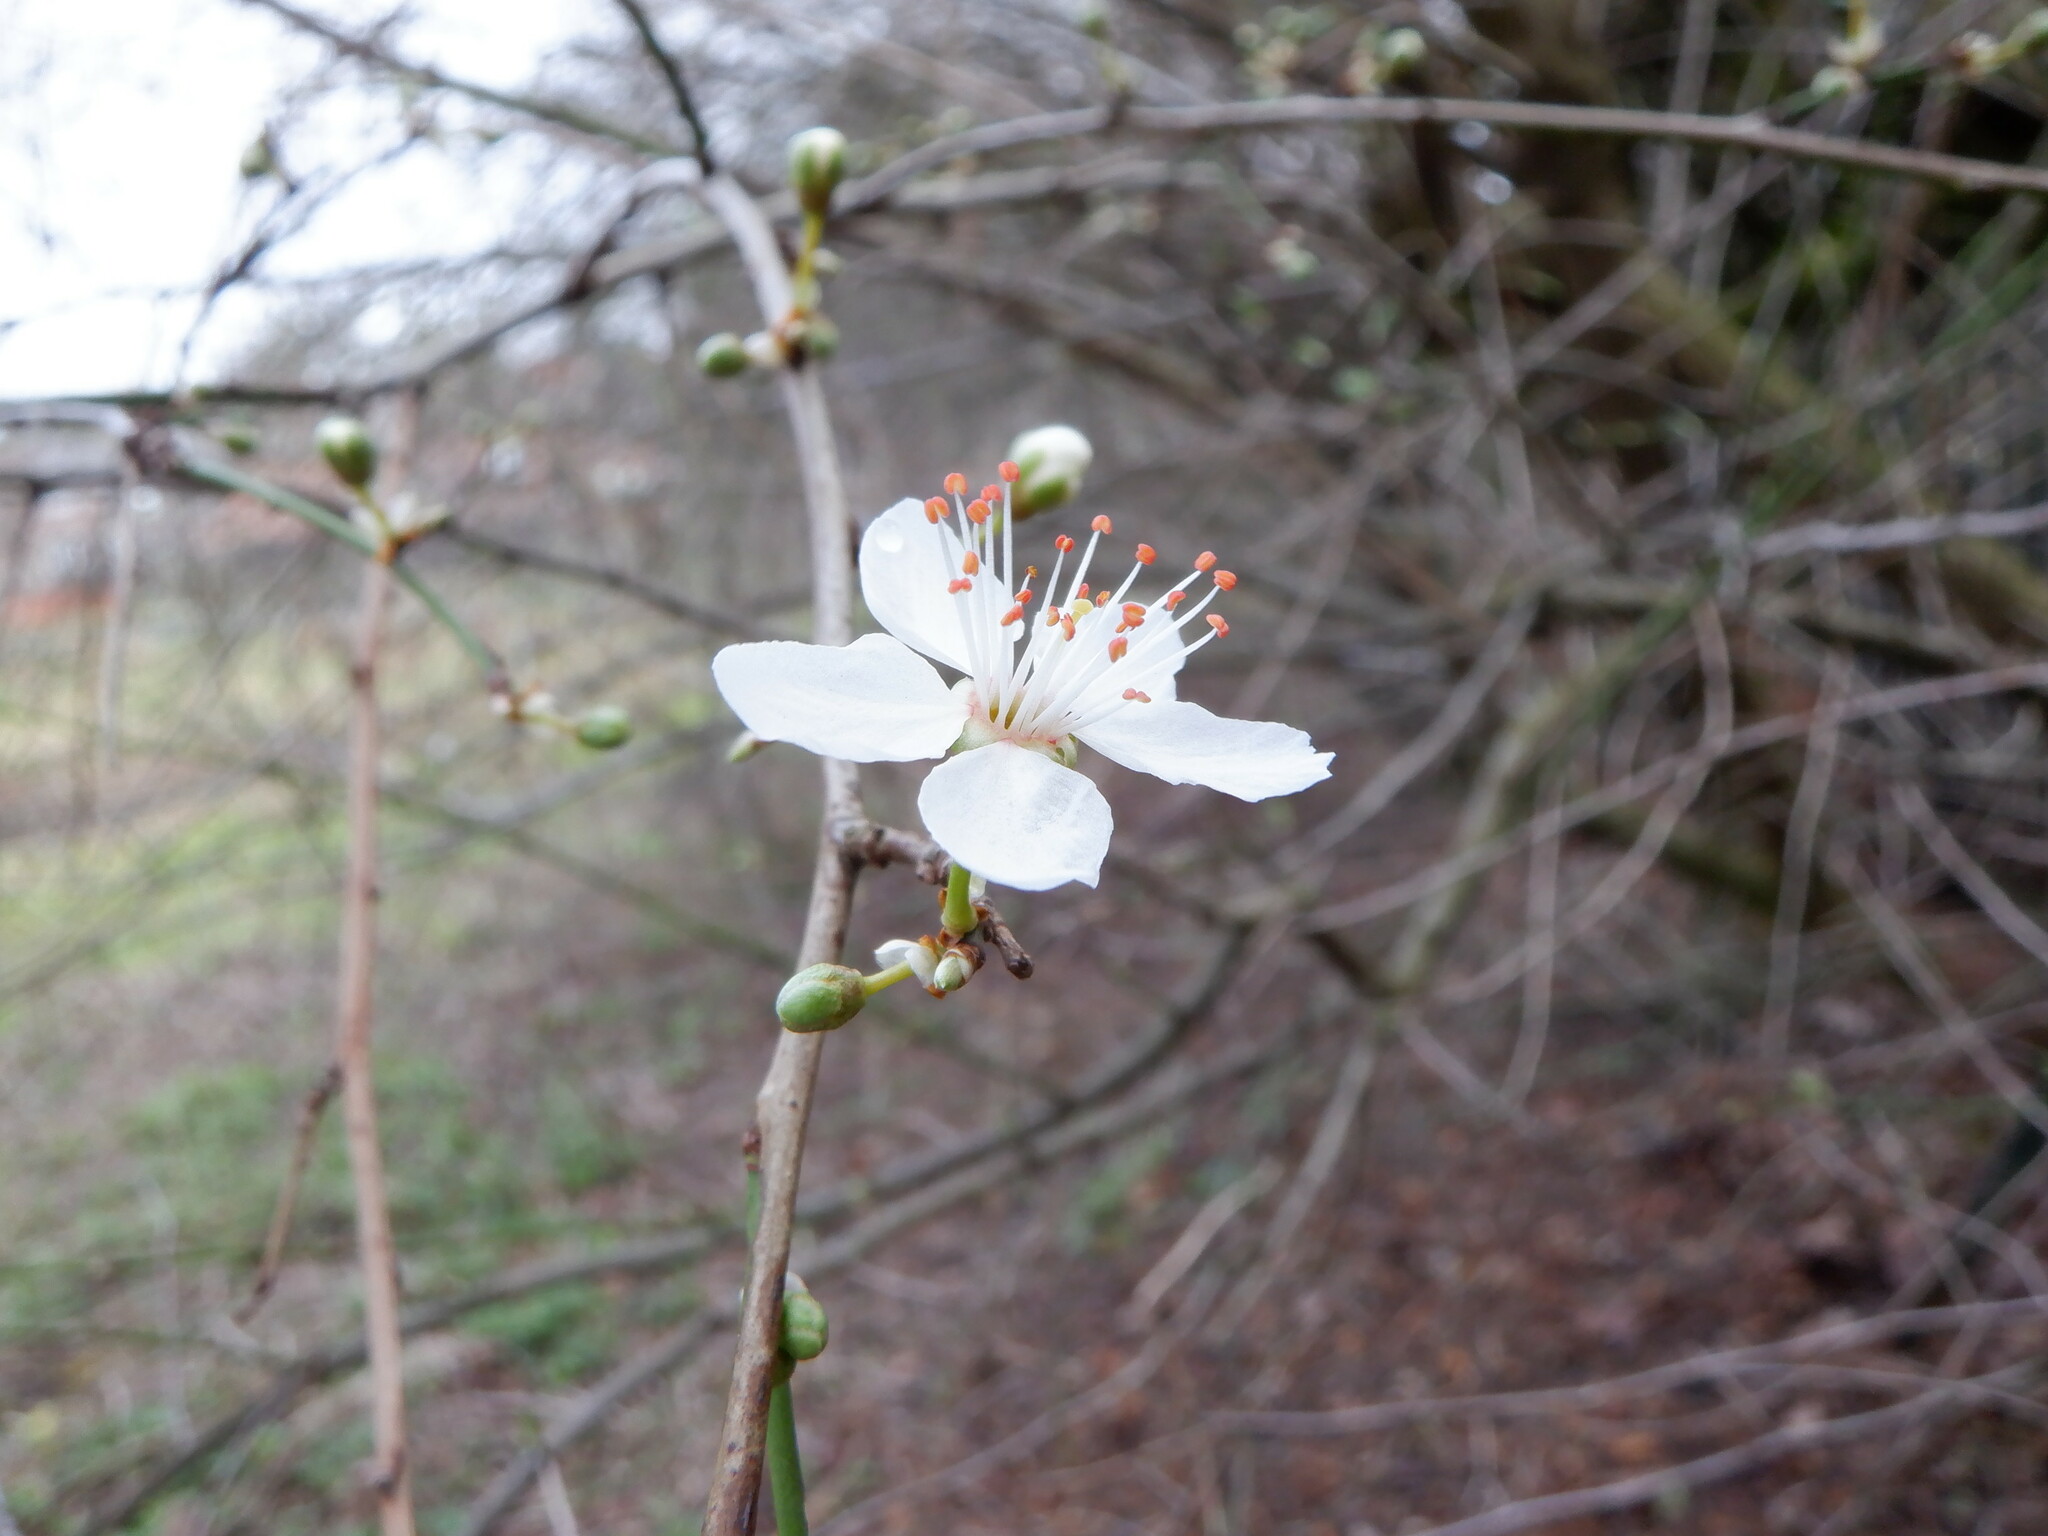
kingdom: Plantae
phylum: Tracheophyta
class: Magnoliopsida
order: Rosales
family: Rosaceae
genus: Prunus
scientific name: Prunus cerasifera
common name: Cherry plum
